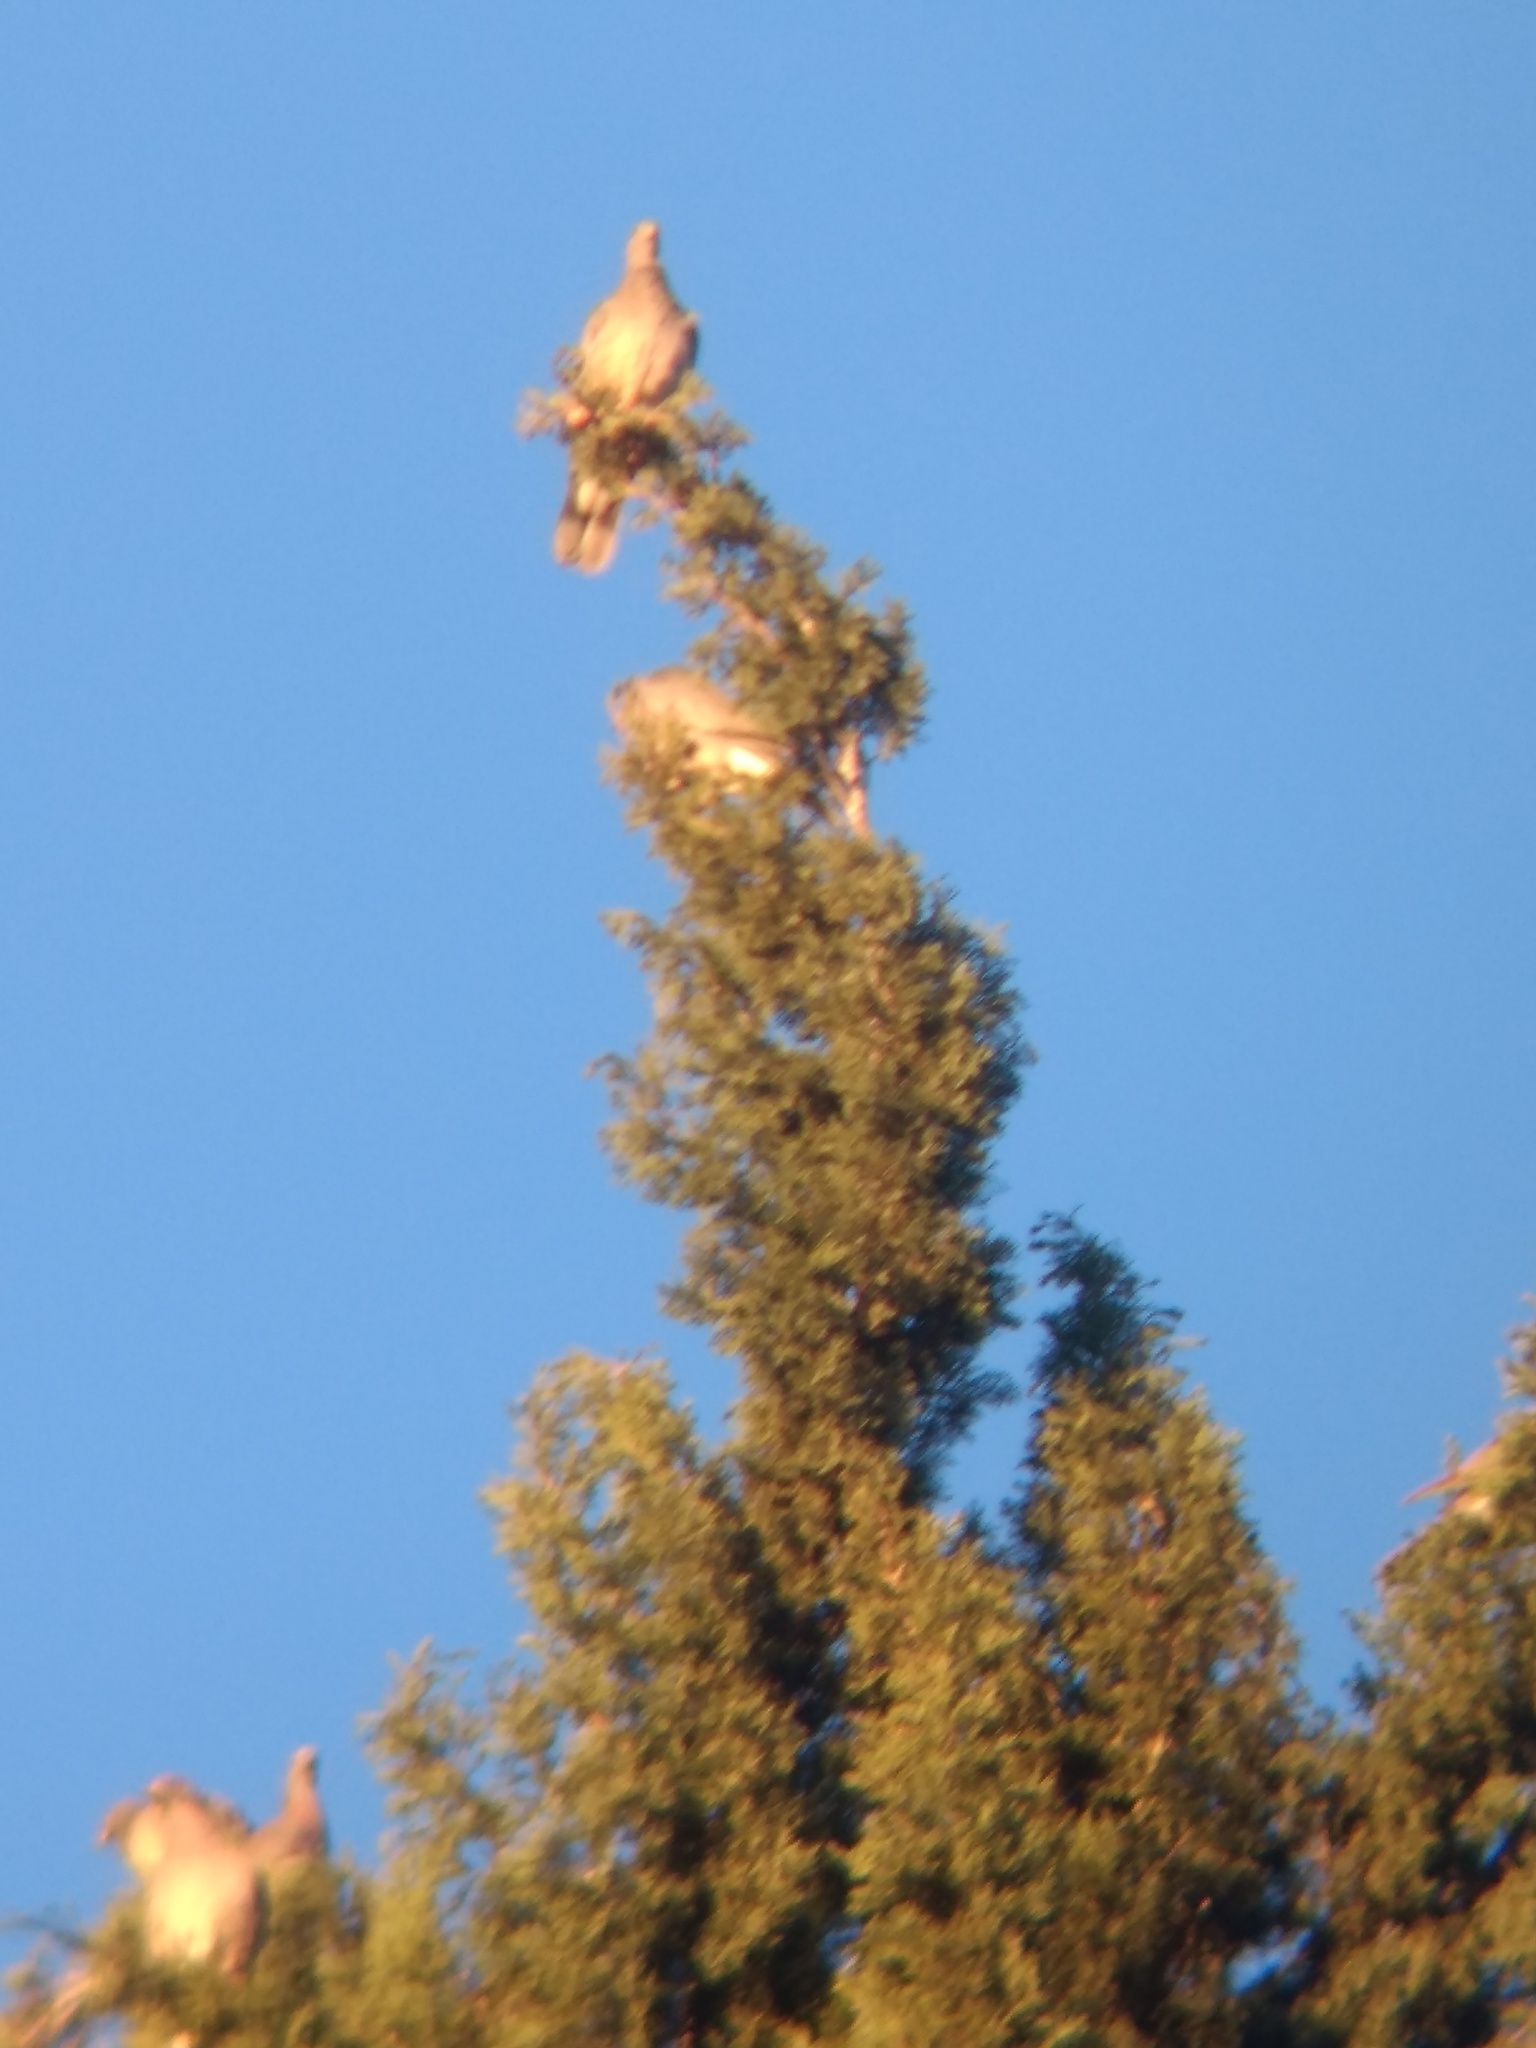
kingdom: Animalia
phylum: Chordata
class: Aves
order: Columbiformes
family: Columbidae
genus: Patagioenas
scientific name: Patagioenas fasciata
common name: Band-tailed pigeon
